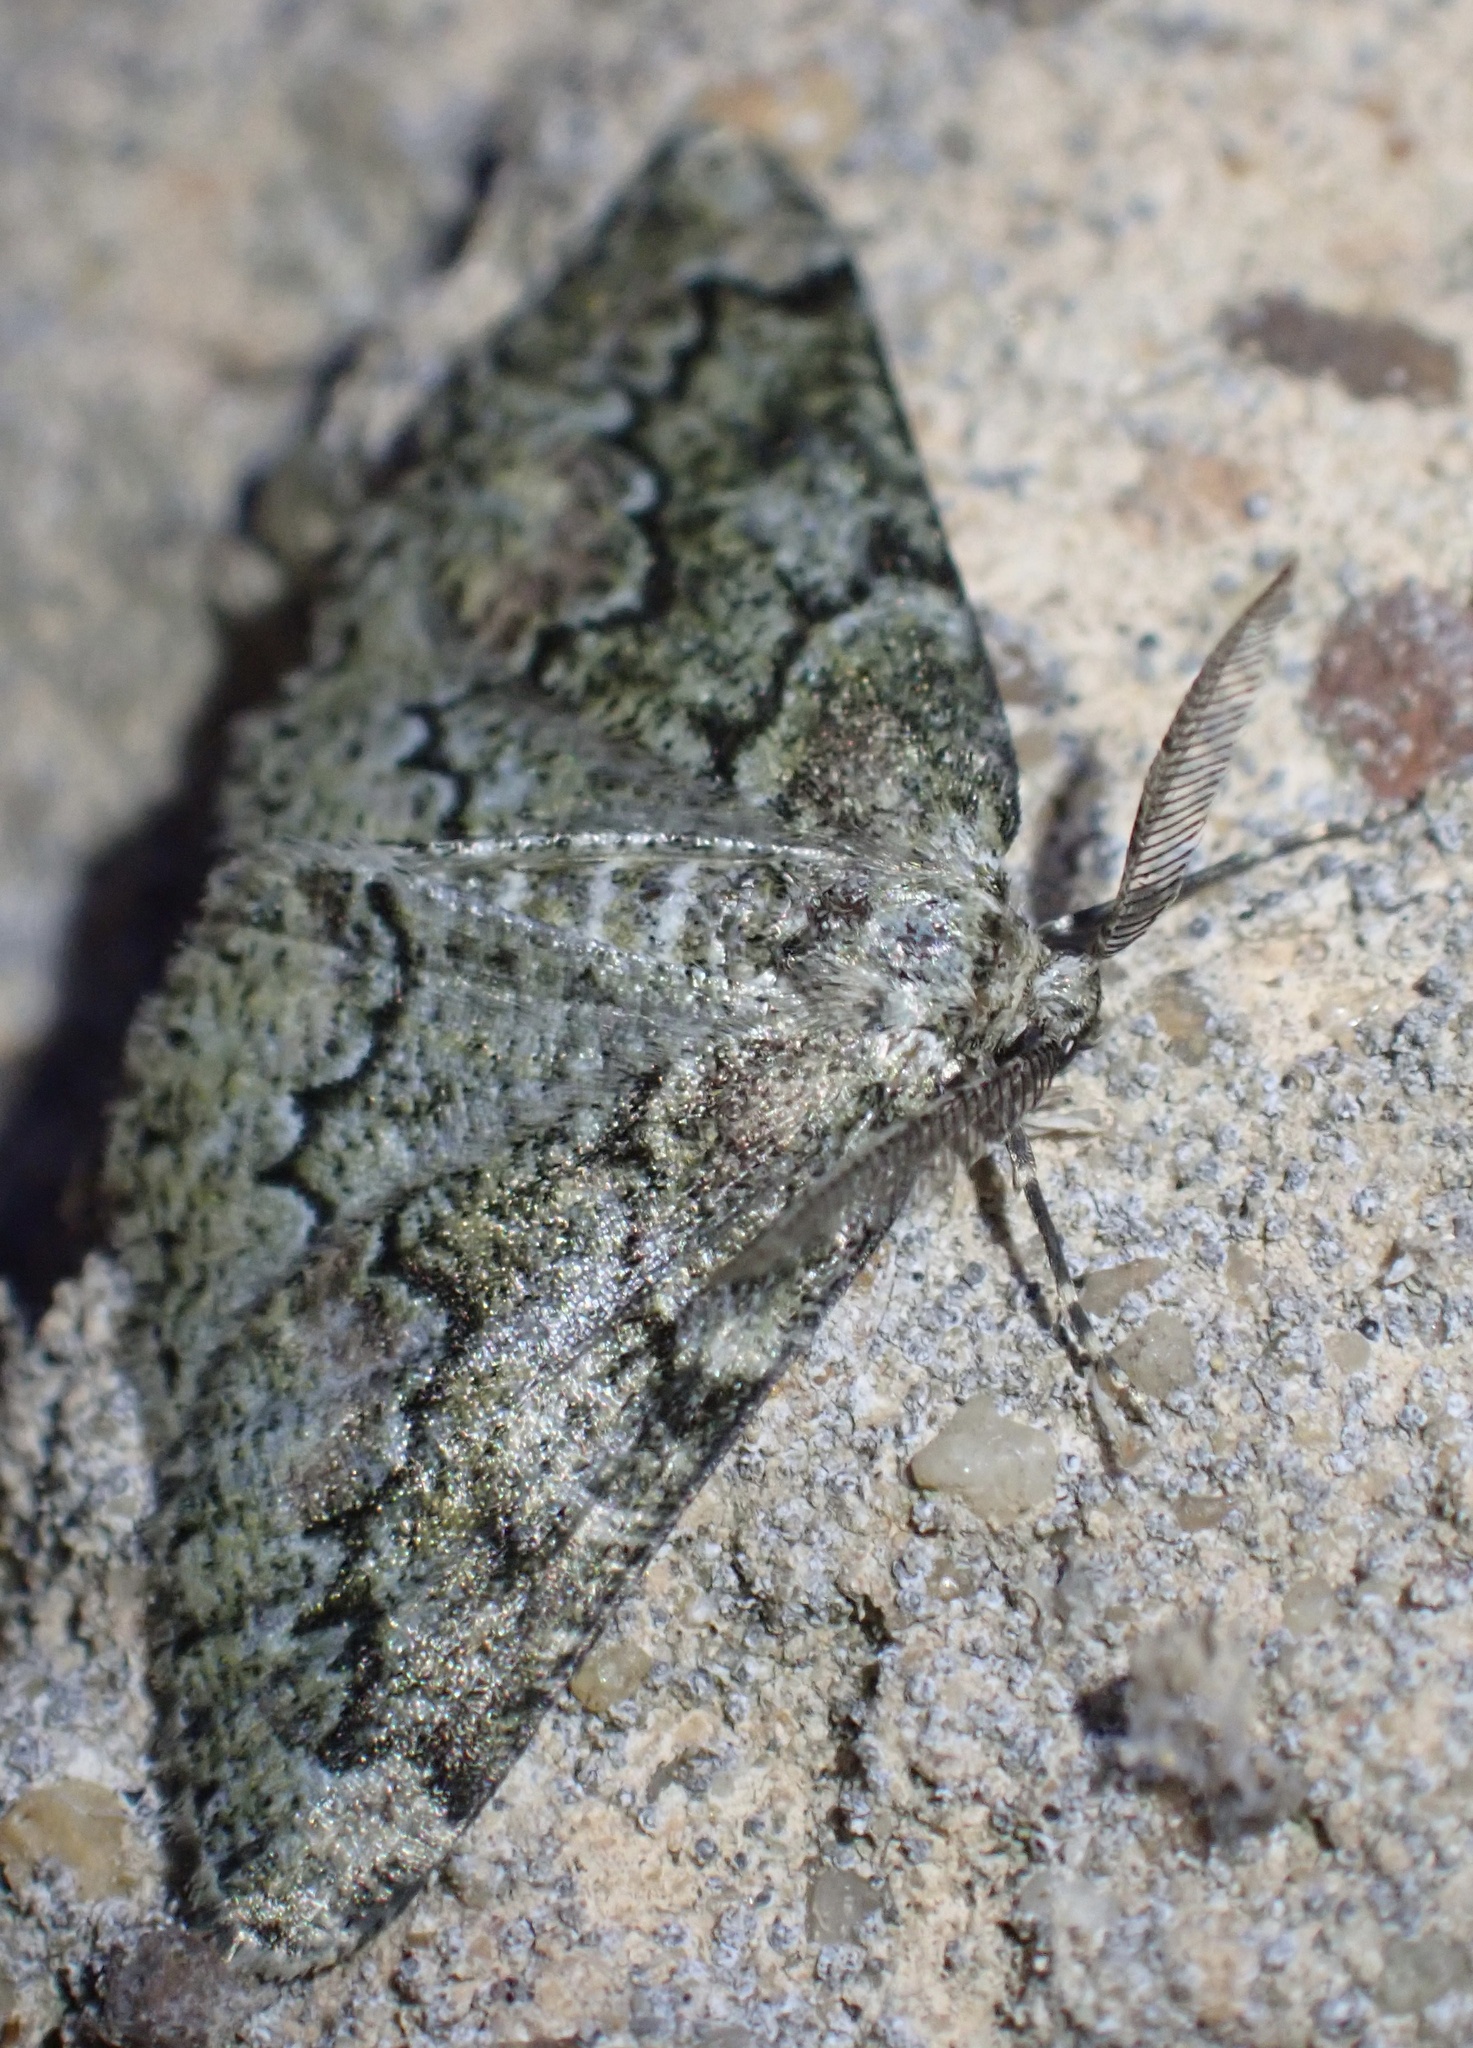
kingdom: Animalia
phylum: Arthropoda
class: Insecta
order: Lepidoptera
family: Geometridae
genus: Cleorodes
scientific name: Cleorodes lichenaria
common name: Brussels lace
